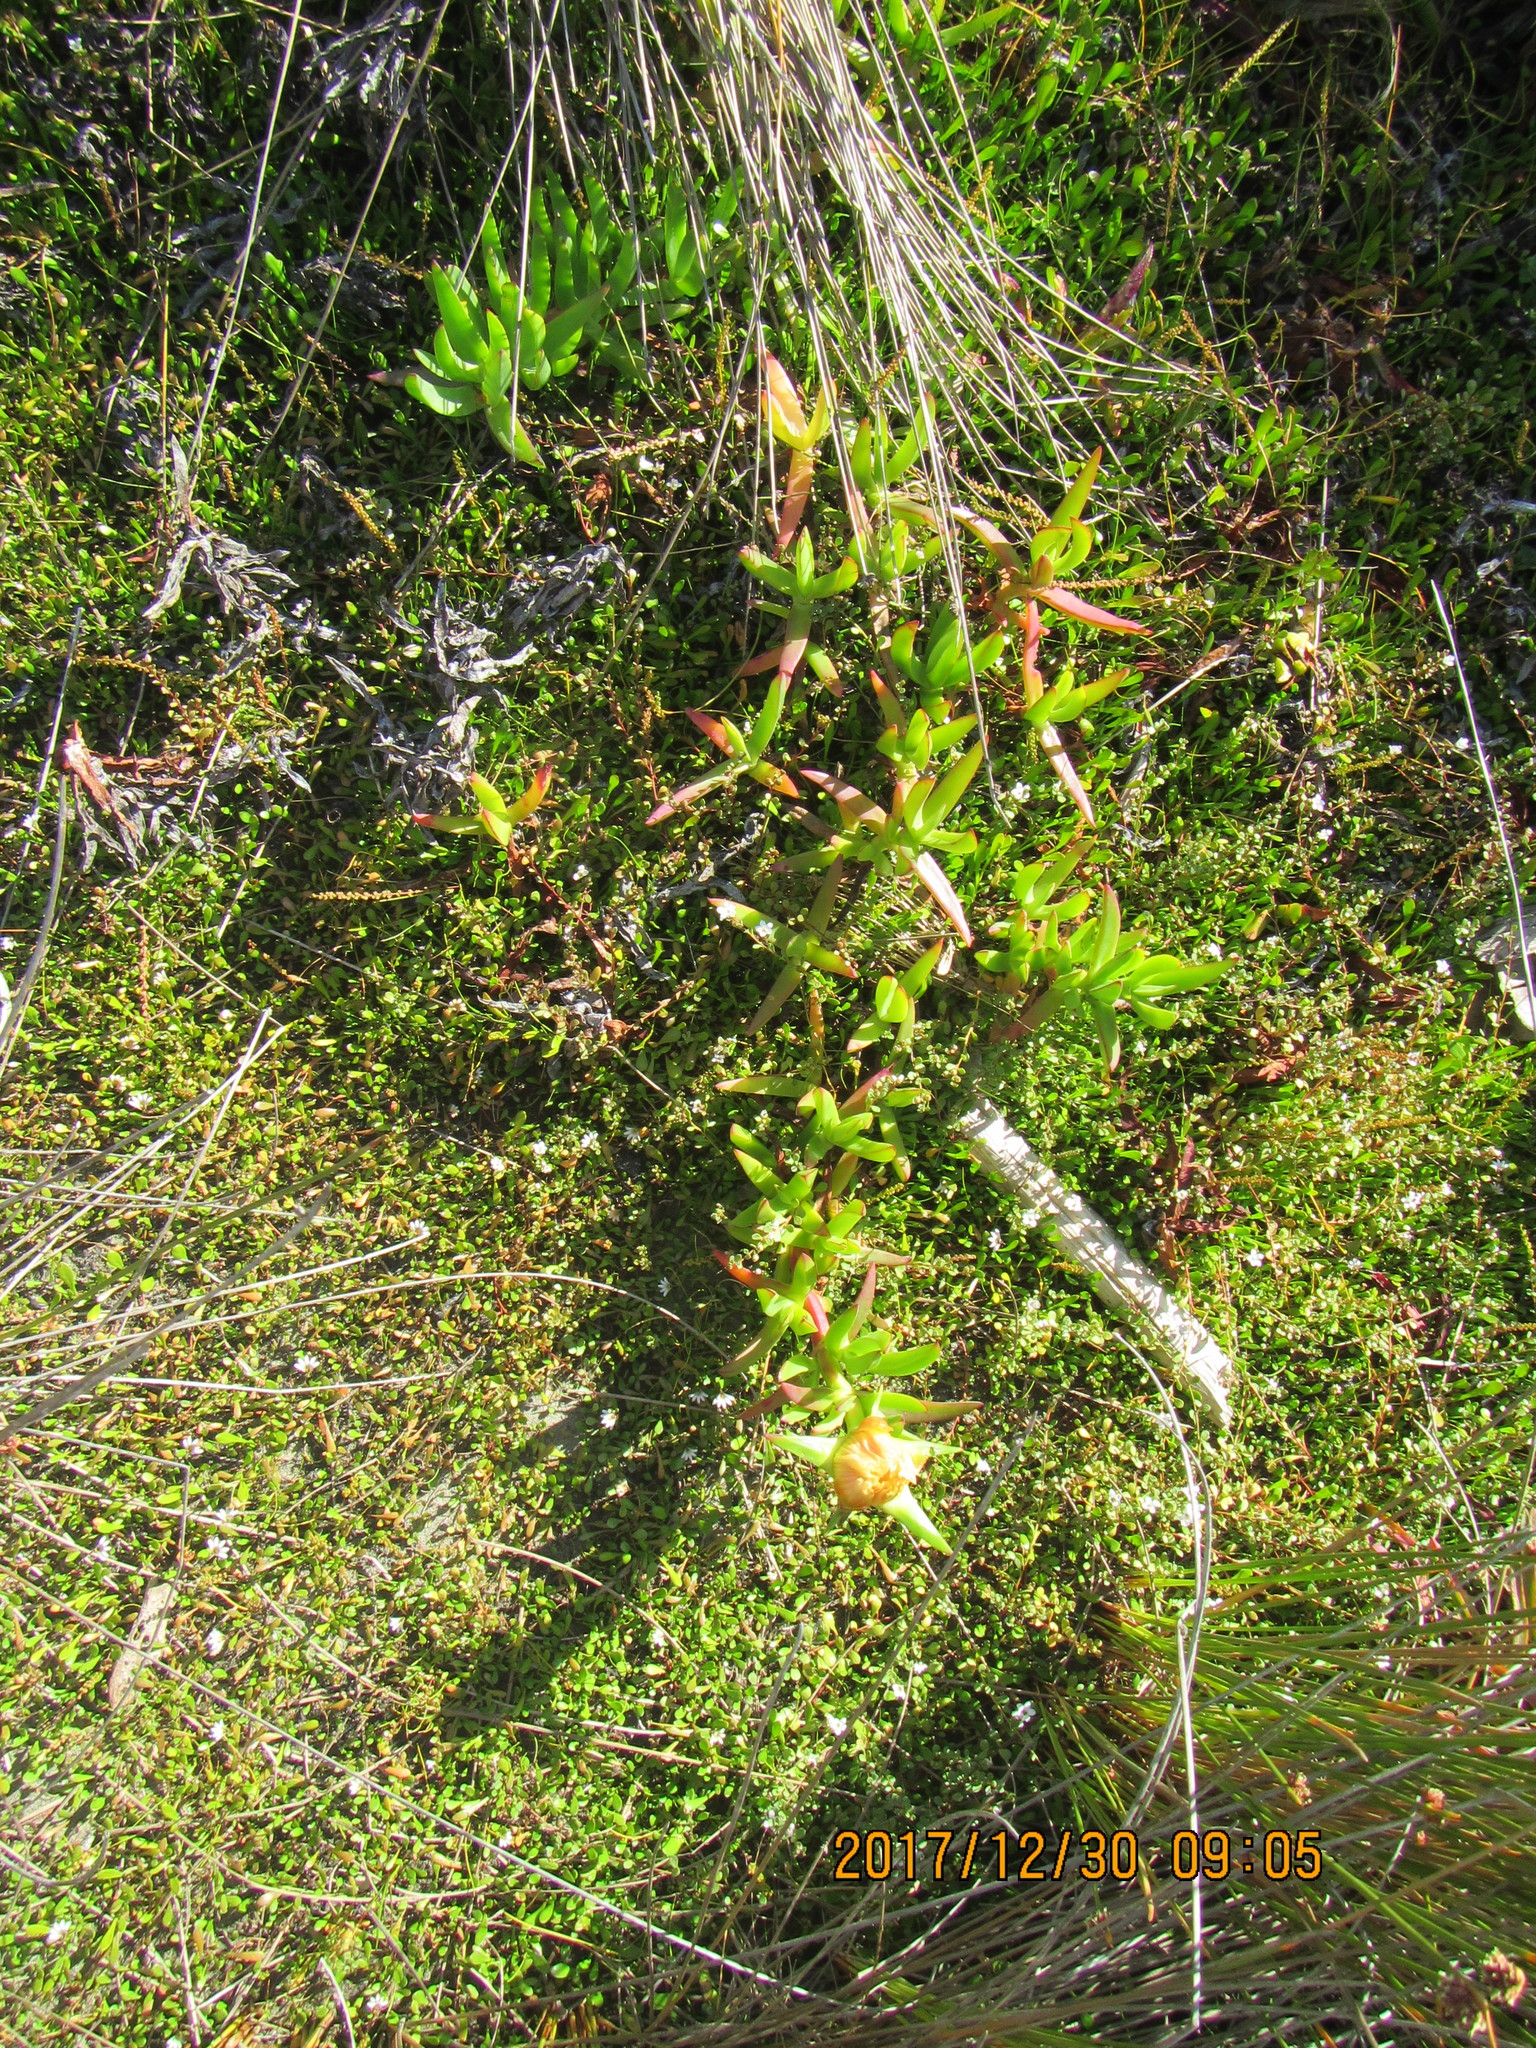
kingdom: Plantae
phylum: Tracheophyta
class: Magnoliopsida
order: Caryophyllales
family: Aizoaceae
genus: Carpobrotus
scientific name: Carpobrotus edulis
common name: Hottentot-fig
